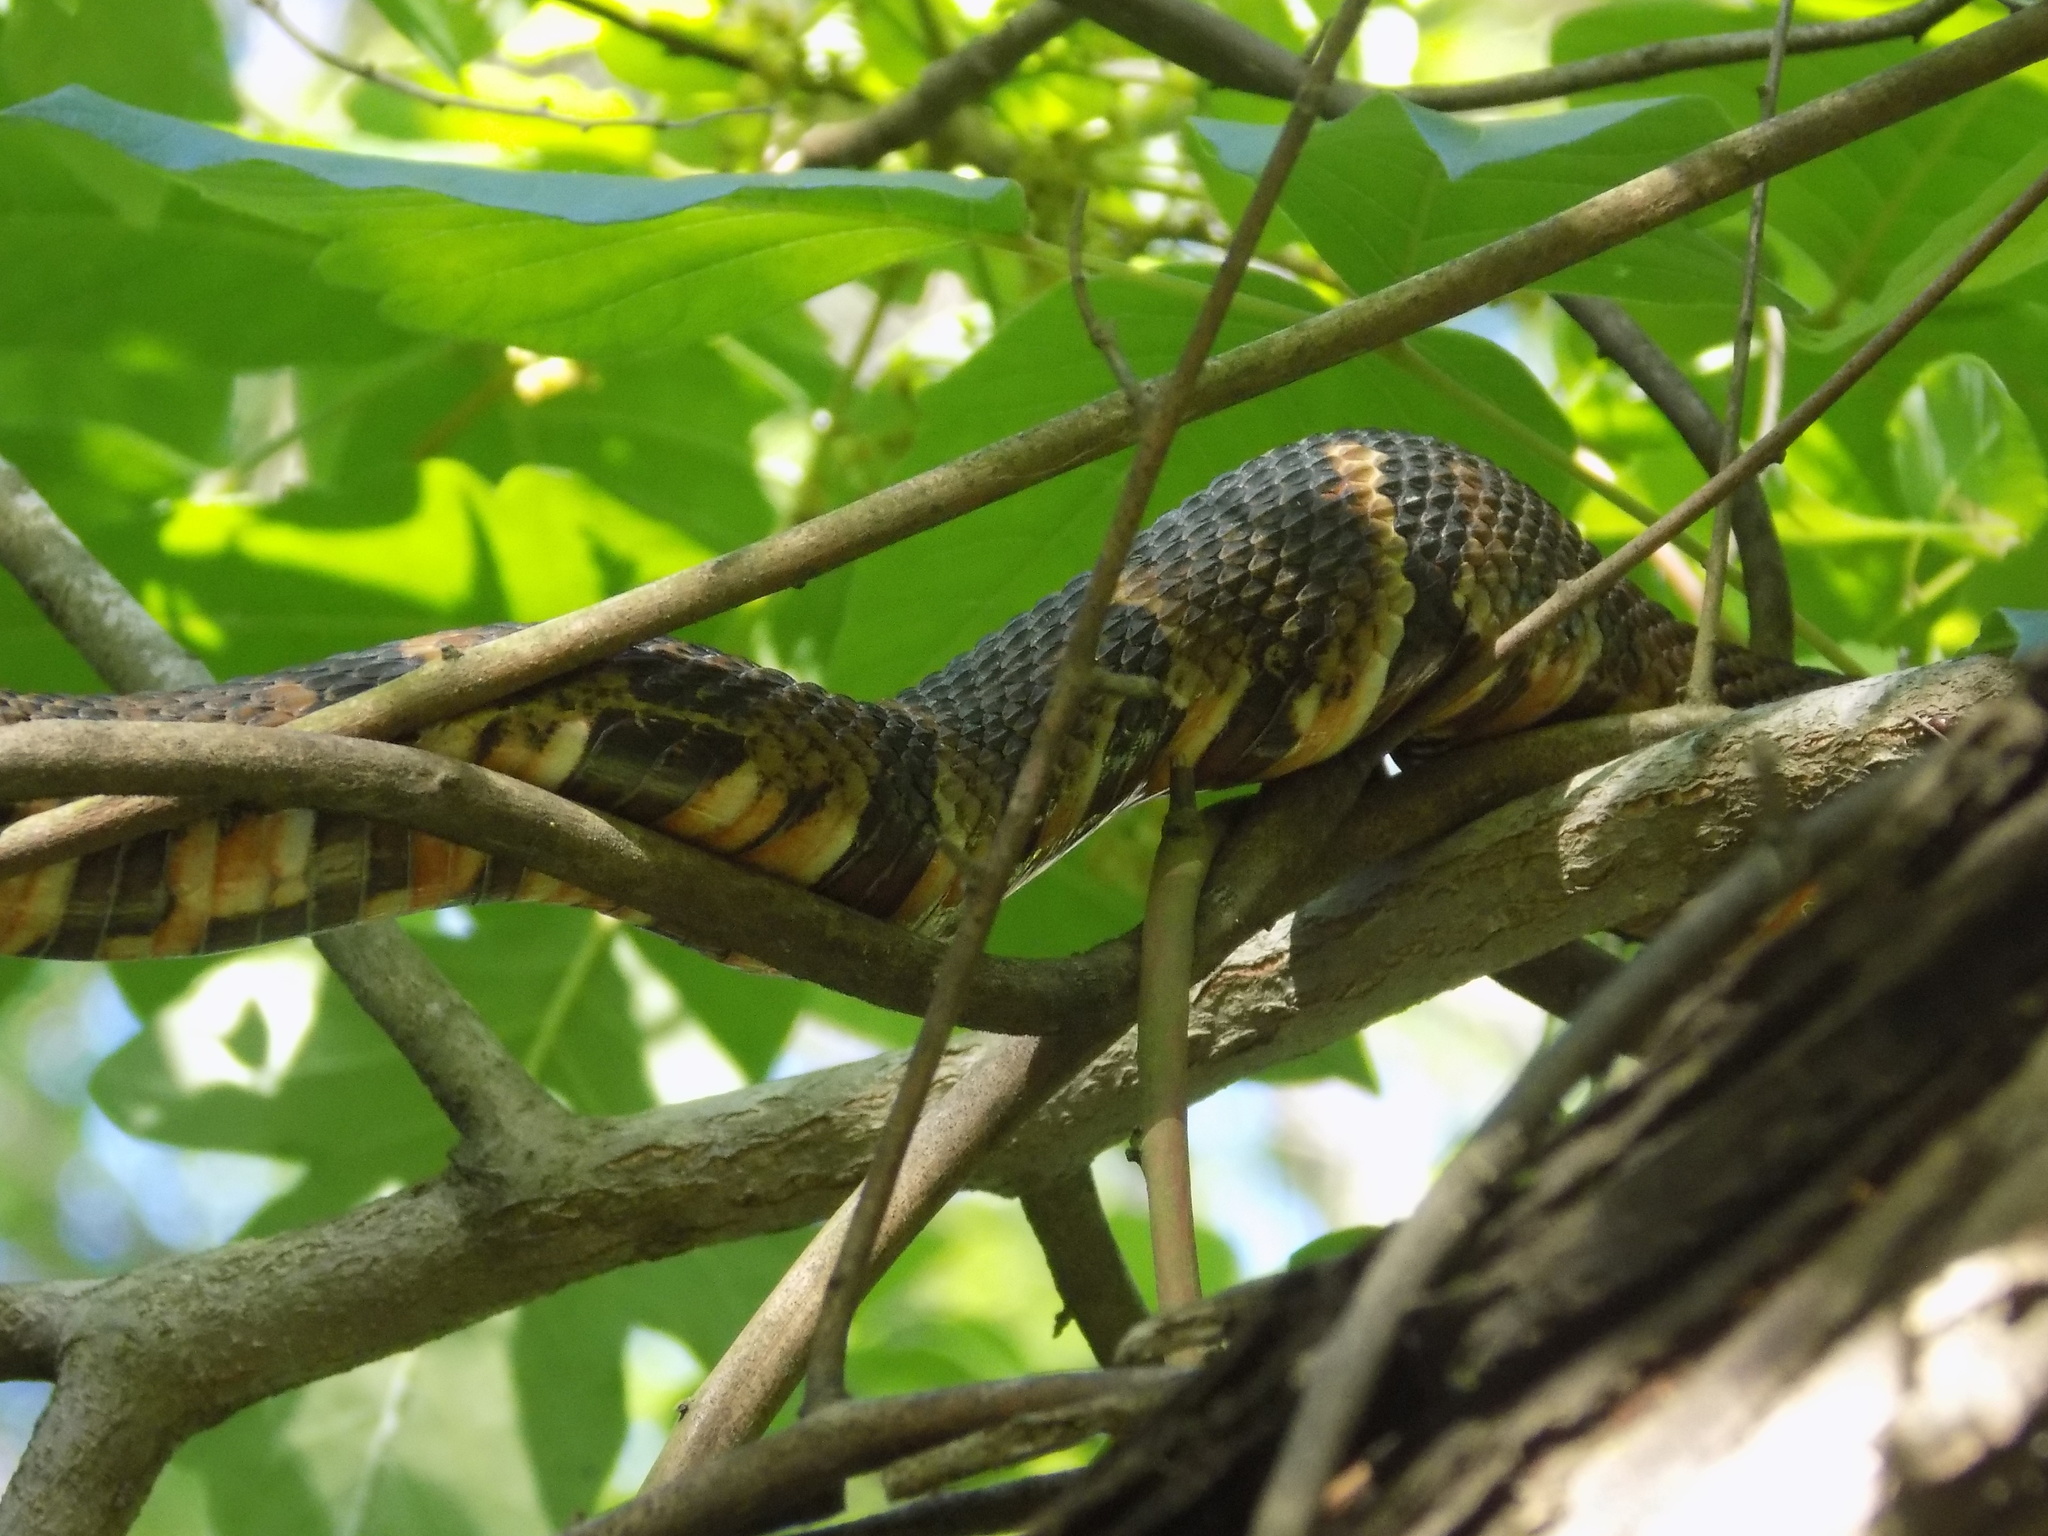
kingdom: Animalia
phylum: Chordata
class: Squamata
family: Colubridae
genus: Nerodia
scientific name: Nerodia fasciata
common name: Southern water snake
